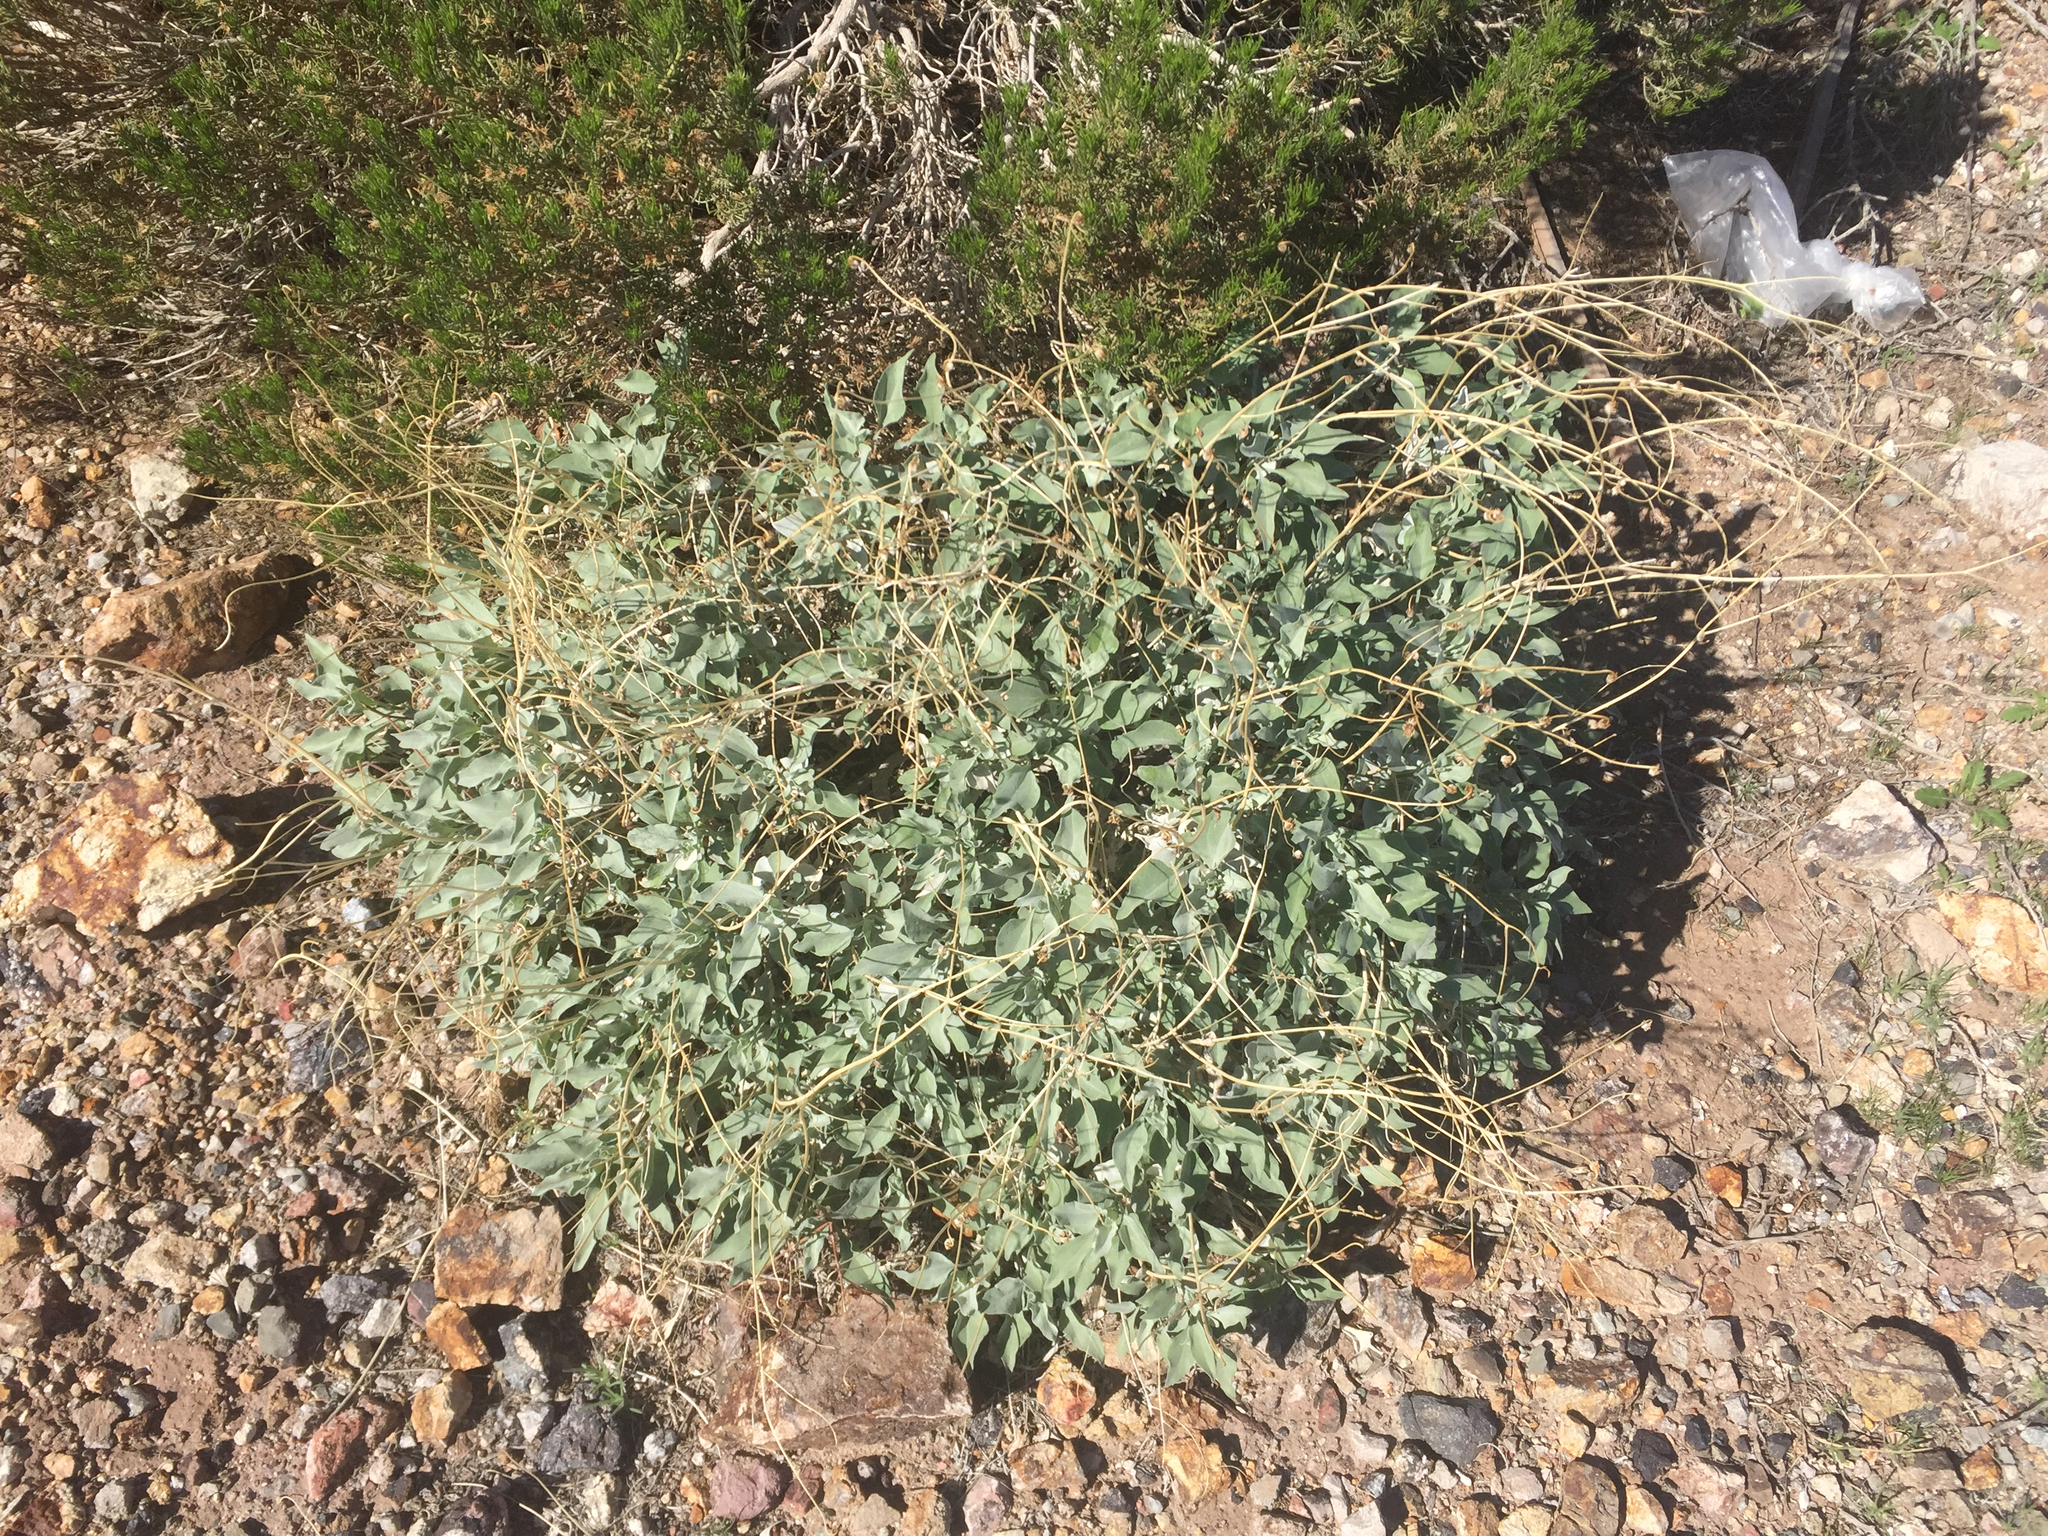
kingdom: Plantae
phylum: Tracheophyta
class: Magnoliopsida
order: Asterales
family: Asteraceae
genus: Encelia
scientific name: Encelia farinosa
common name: Brittlebush
